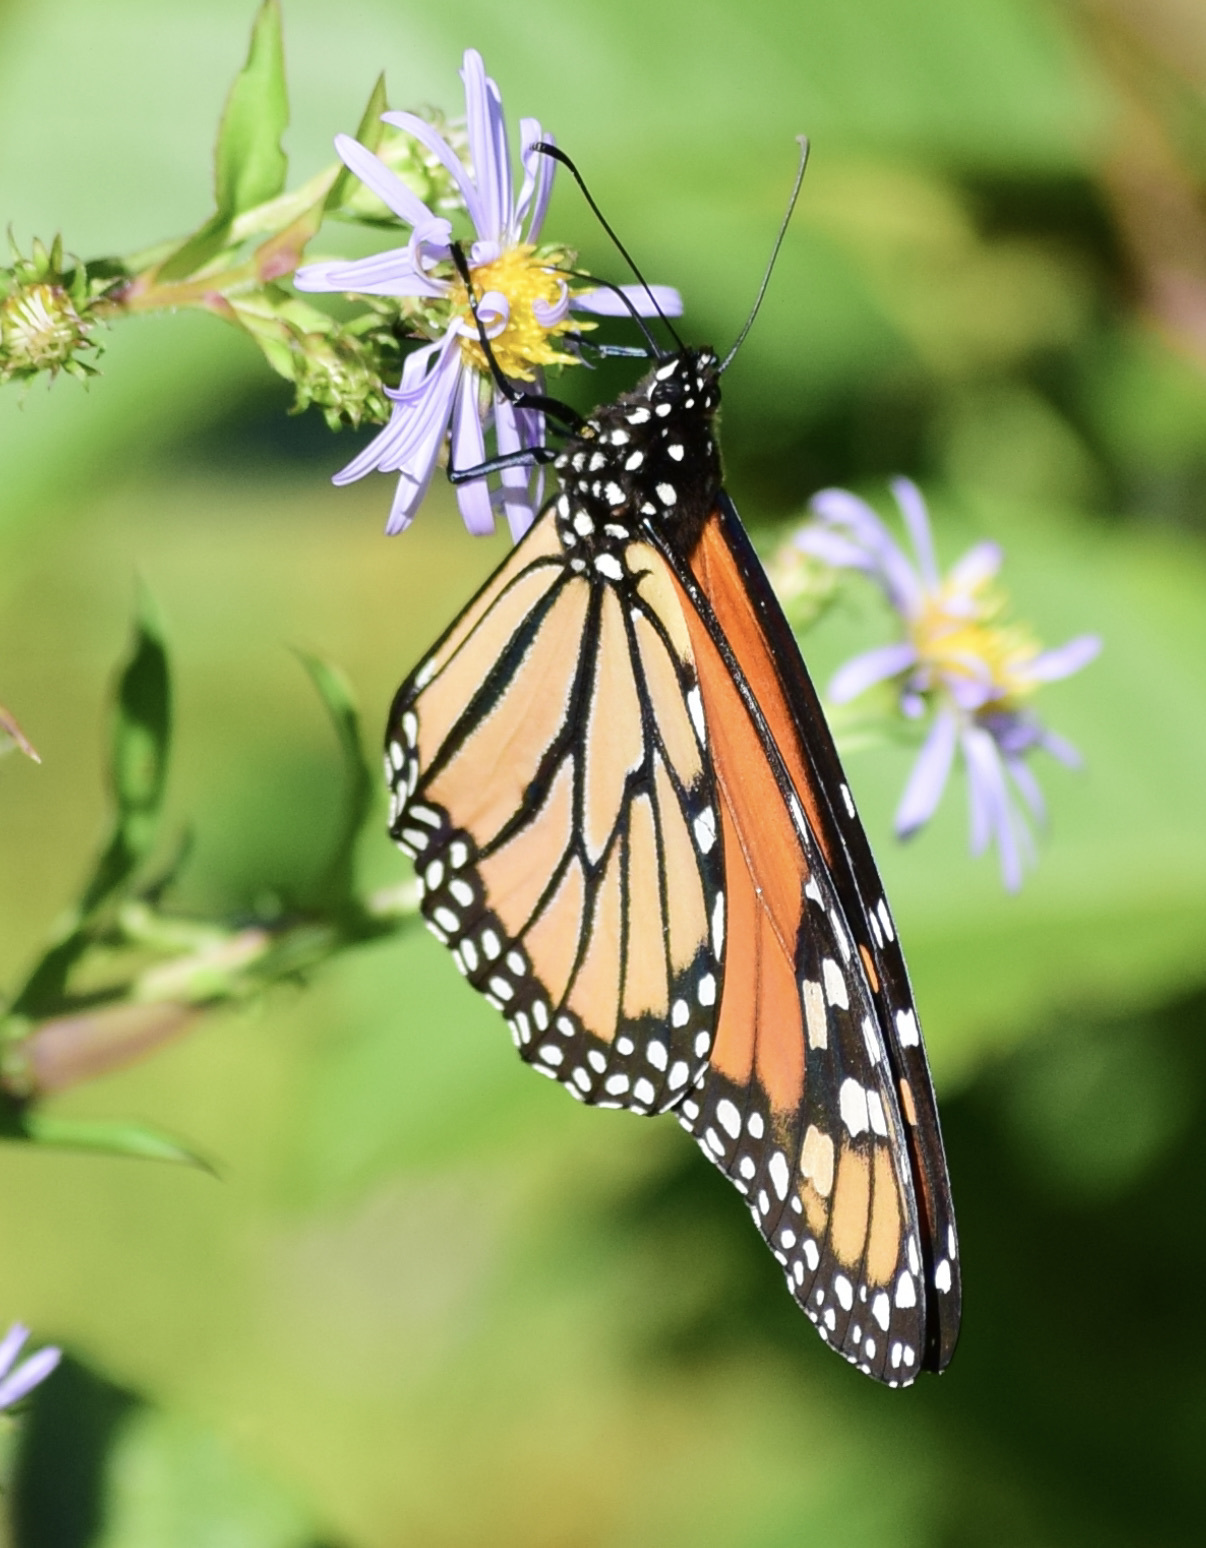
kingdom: Animalia
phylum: Arthropoda
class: Insecta
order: Lepidoptera
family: Nymphalidae
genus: Danaus
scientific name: Danaus plexippus
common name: Monarch
